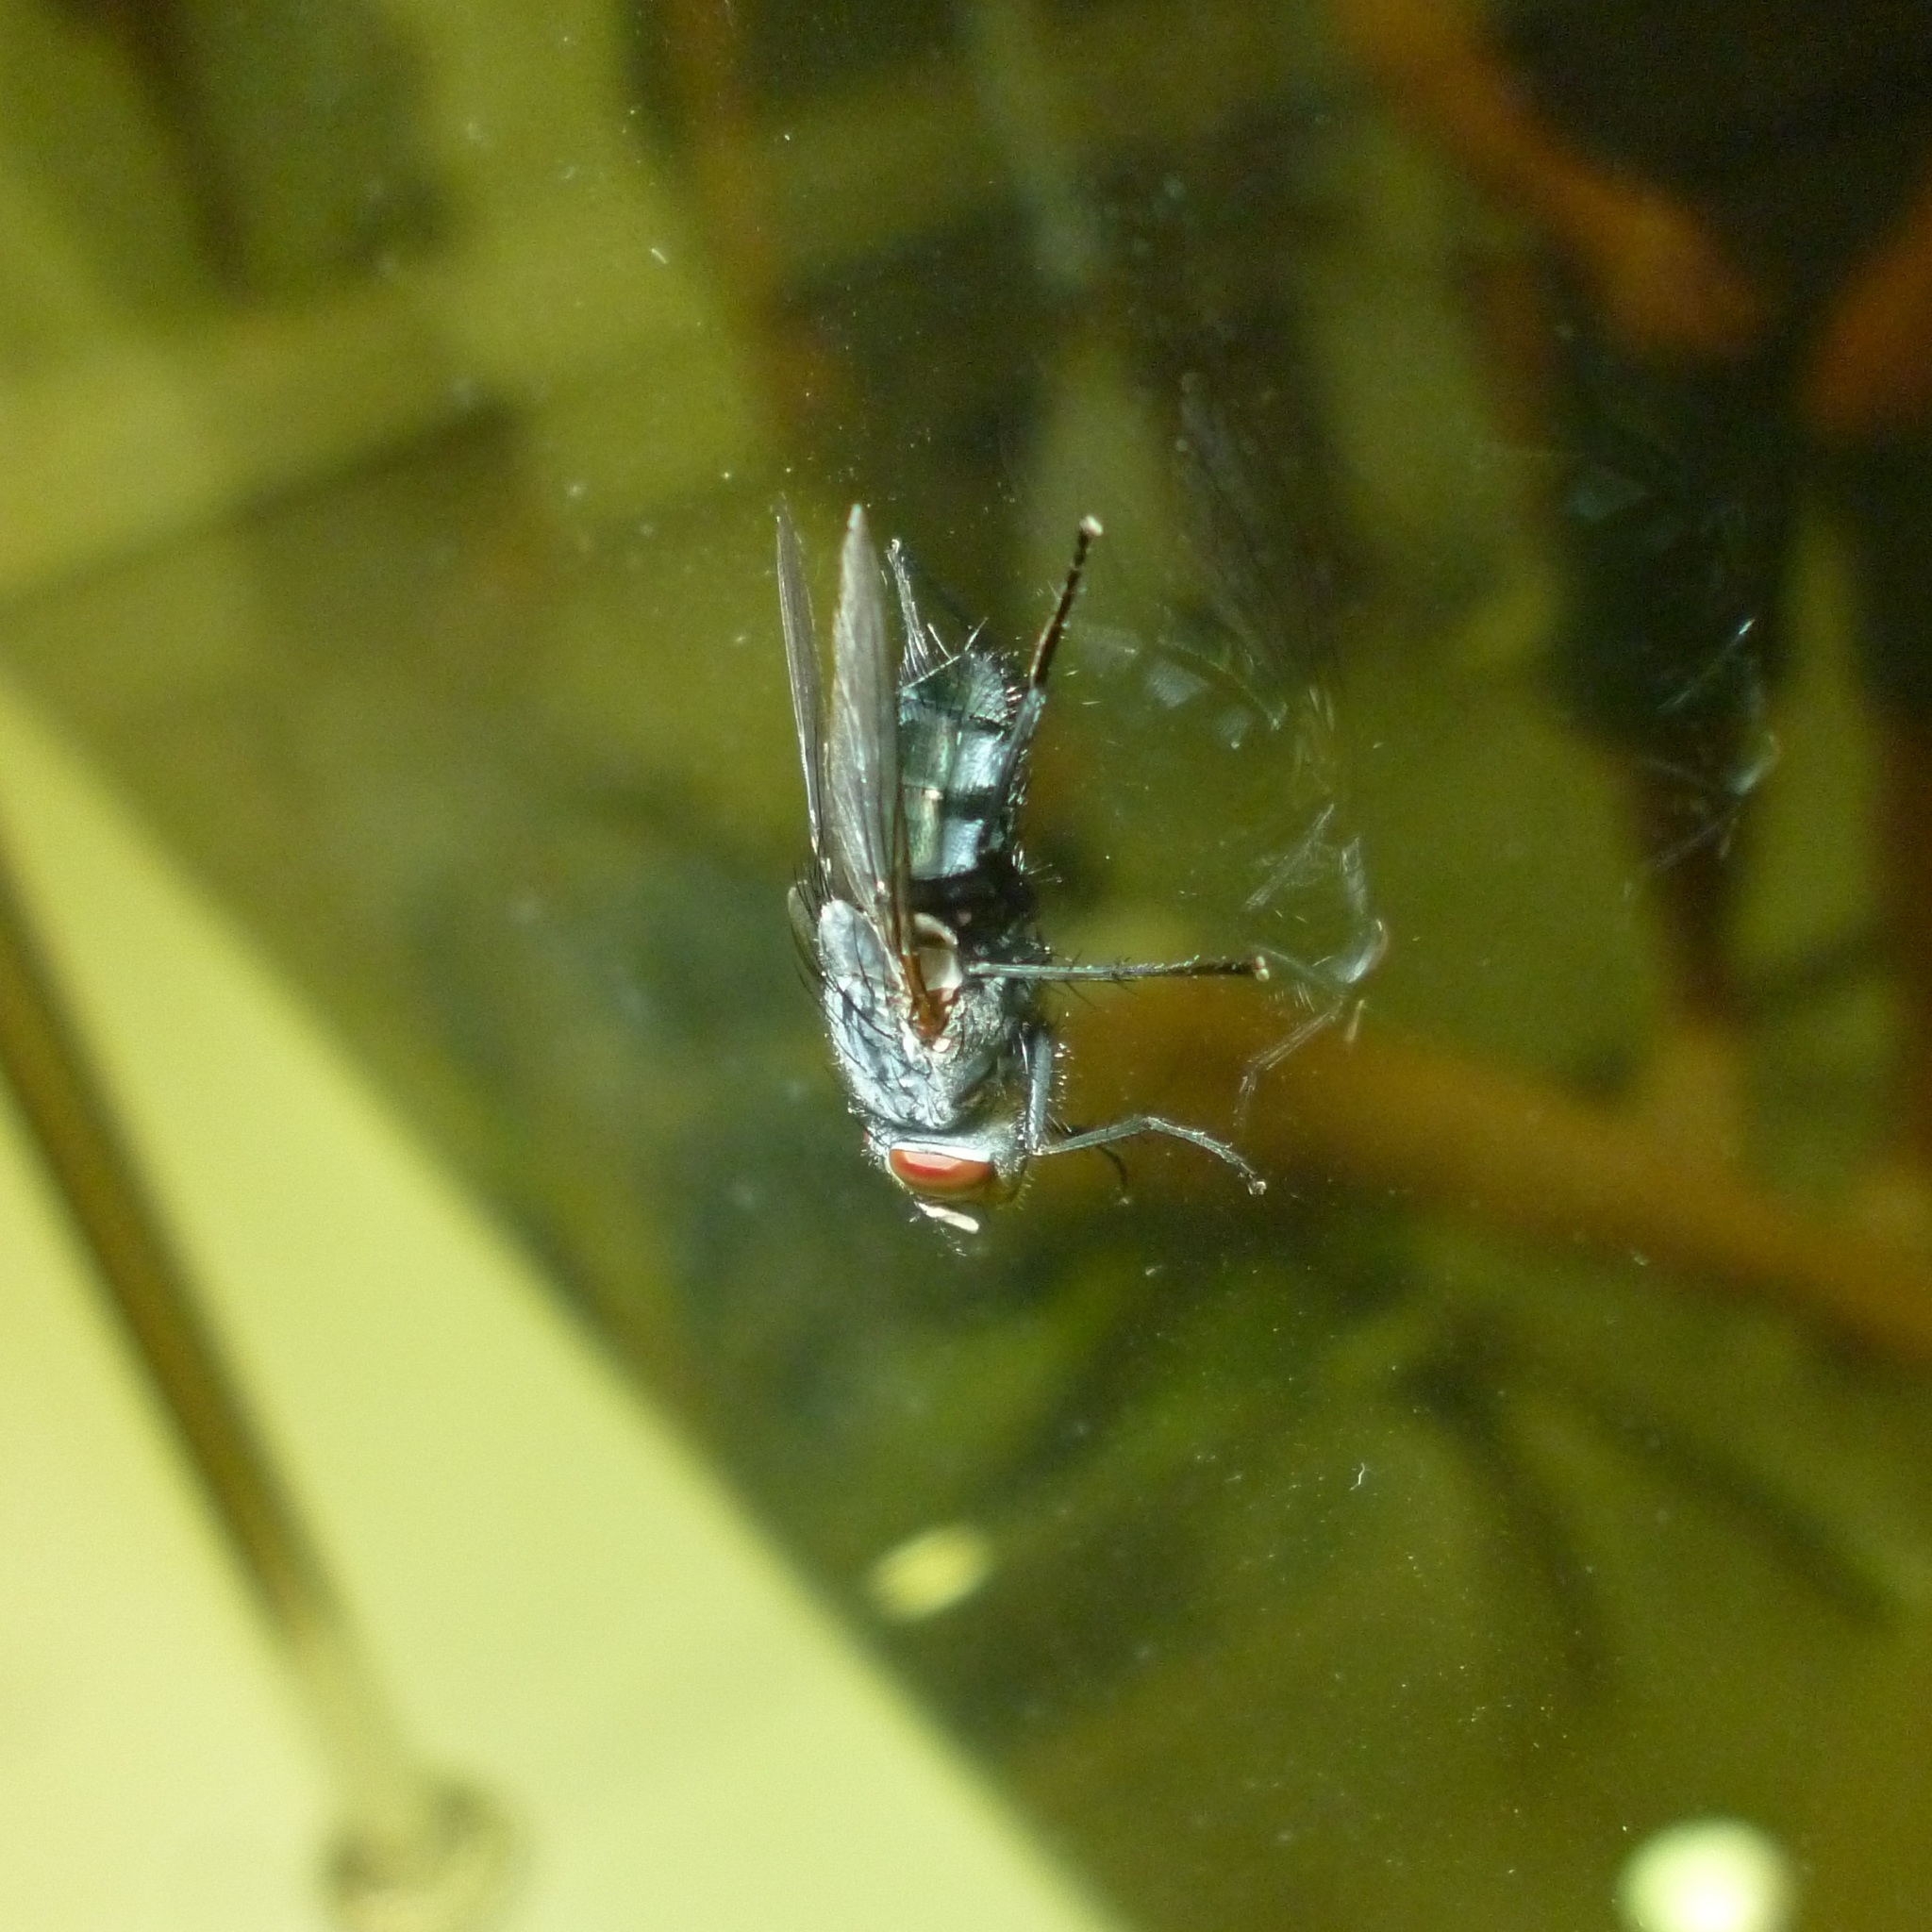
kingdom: Animalia
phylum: Arthropoda
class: Insecta
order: Diptera
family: Calliphoridae
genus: Calliphora
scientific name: Calliphora vicina
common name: Common blow flie
